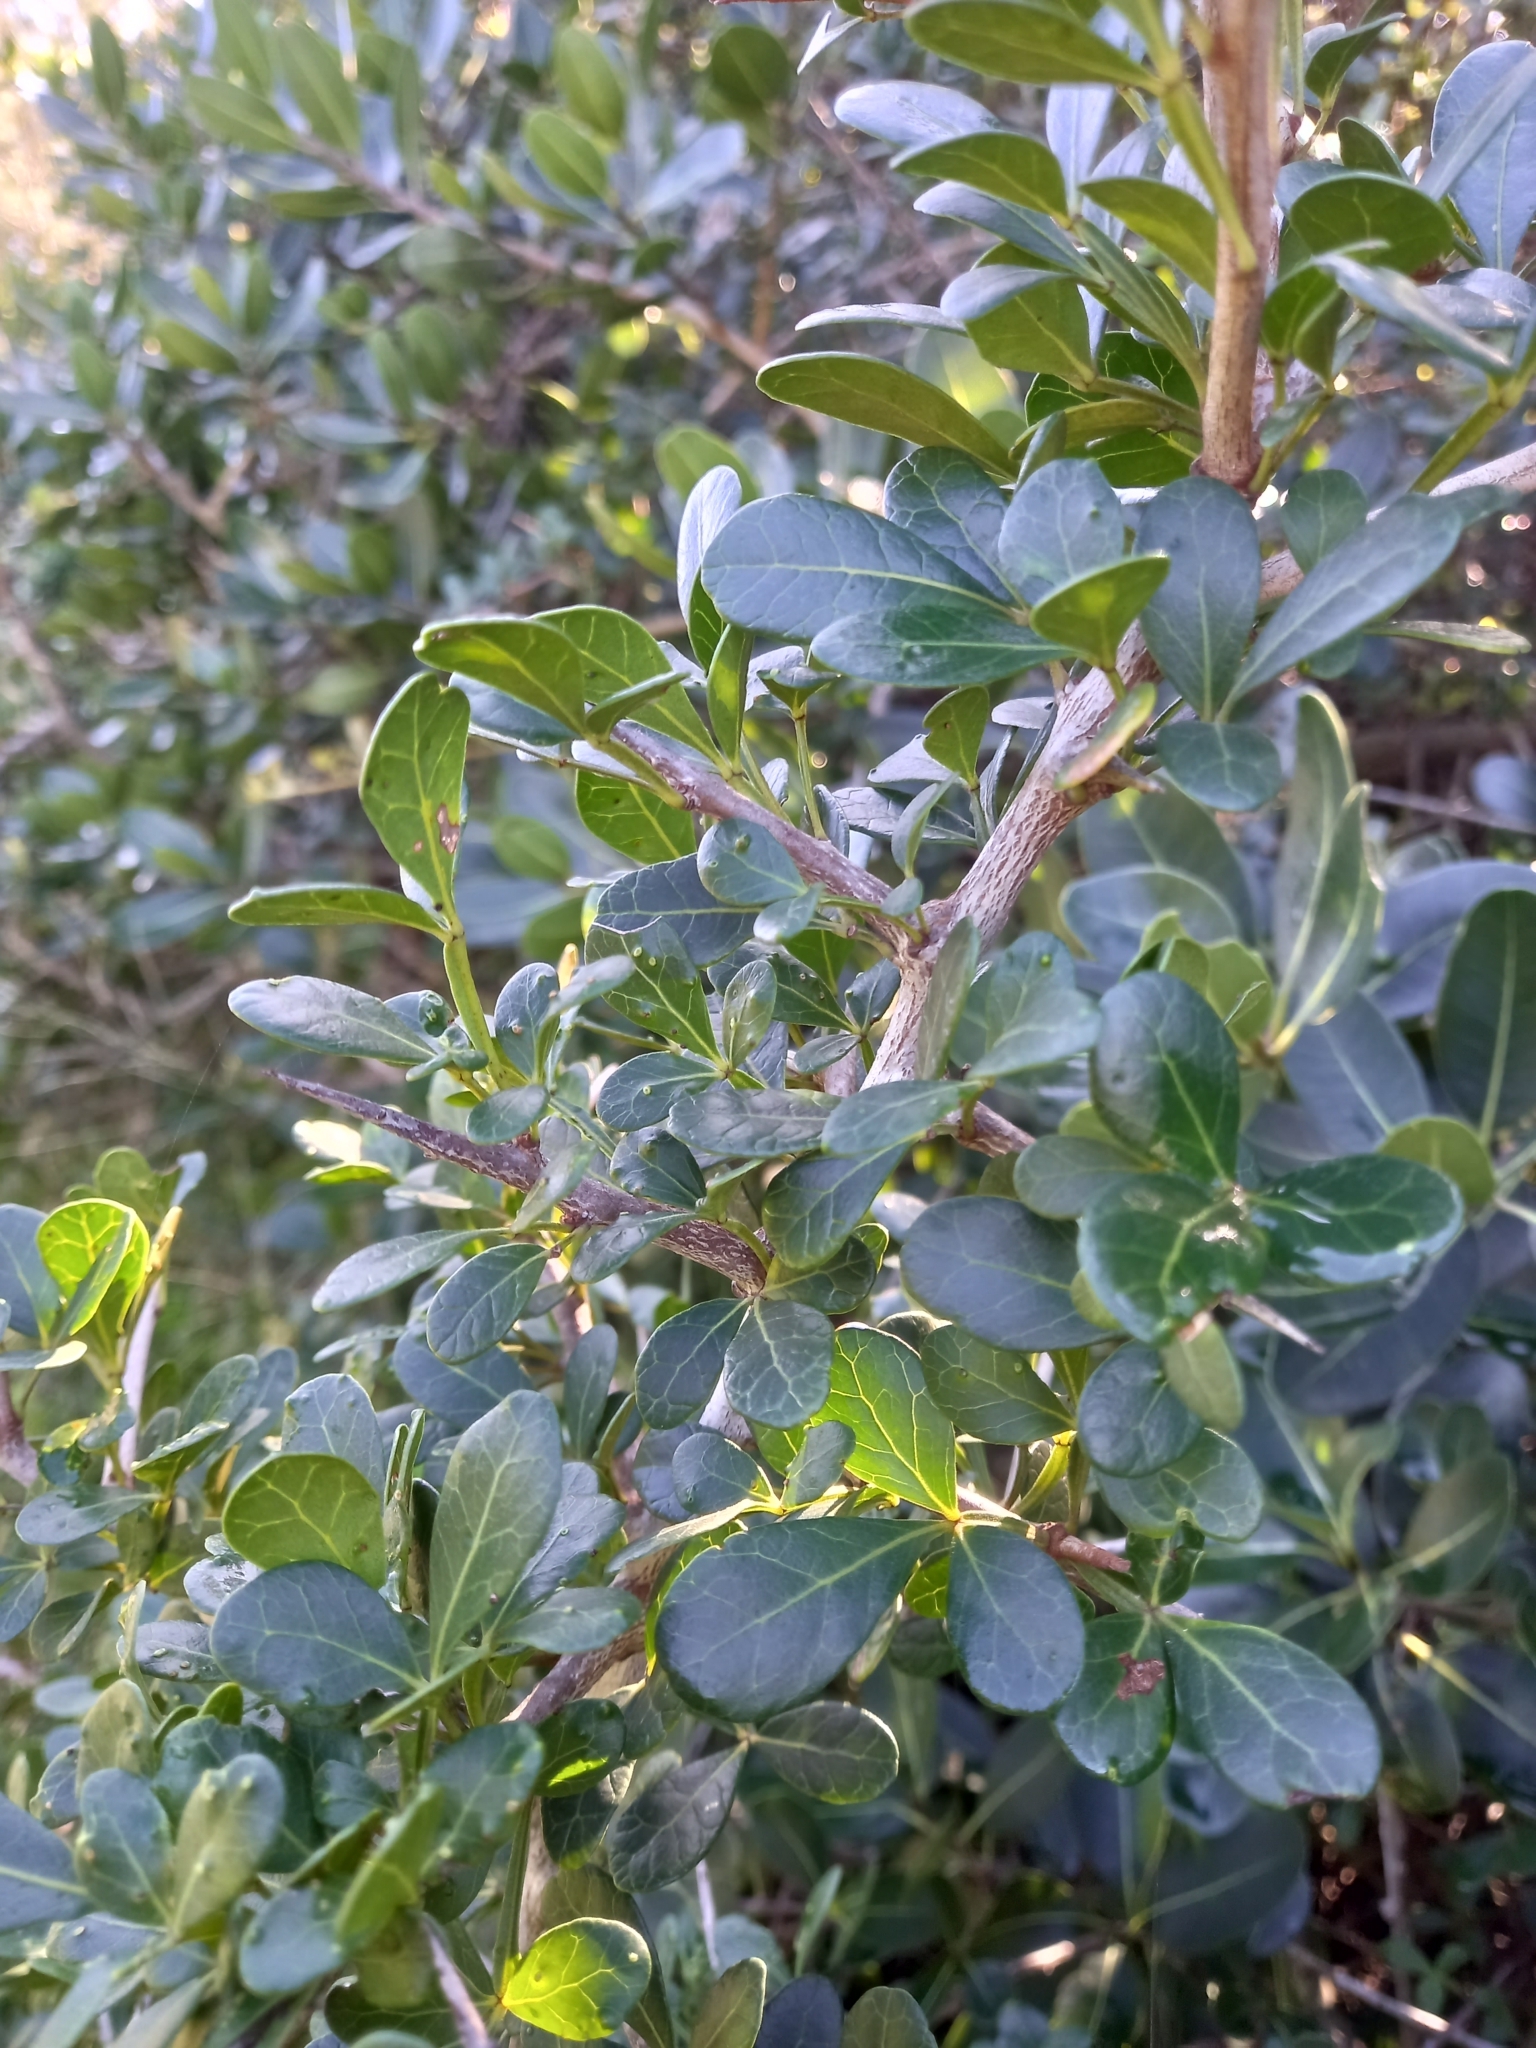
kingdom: Plantae
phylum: Tracheophyta
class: Magnoliopsida
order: Sapindales
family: Anacardiaceae
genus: Searsia
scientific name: Searsia pterota
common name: Winged currant
